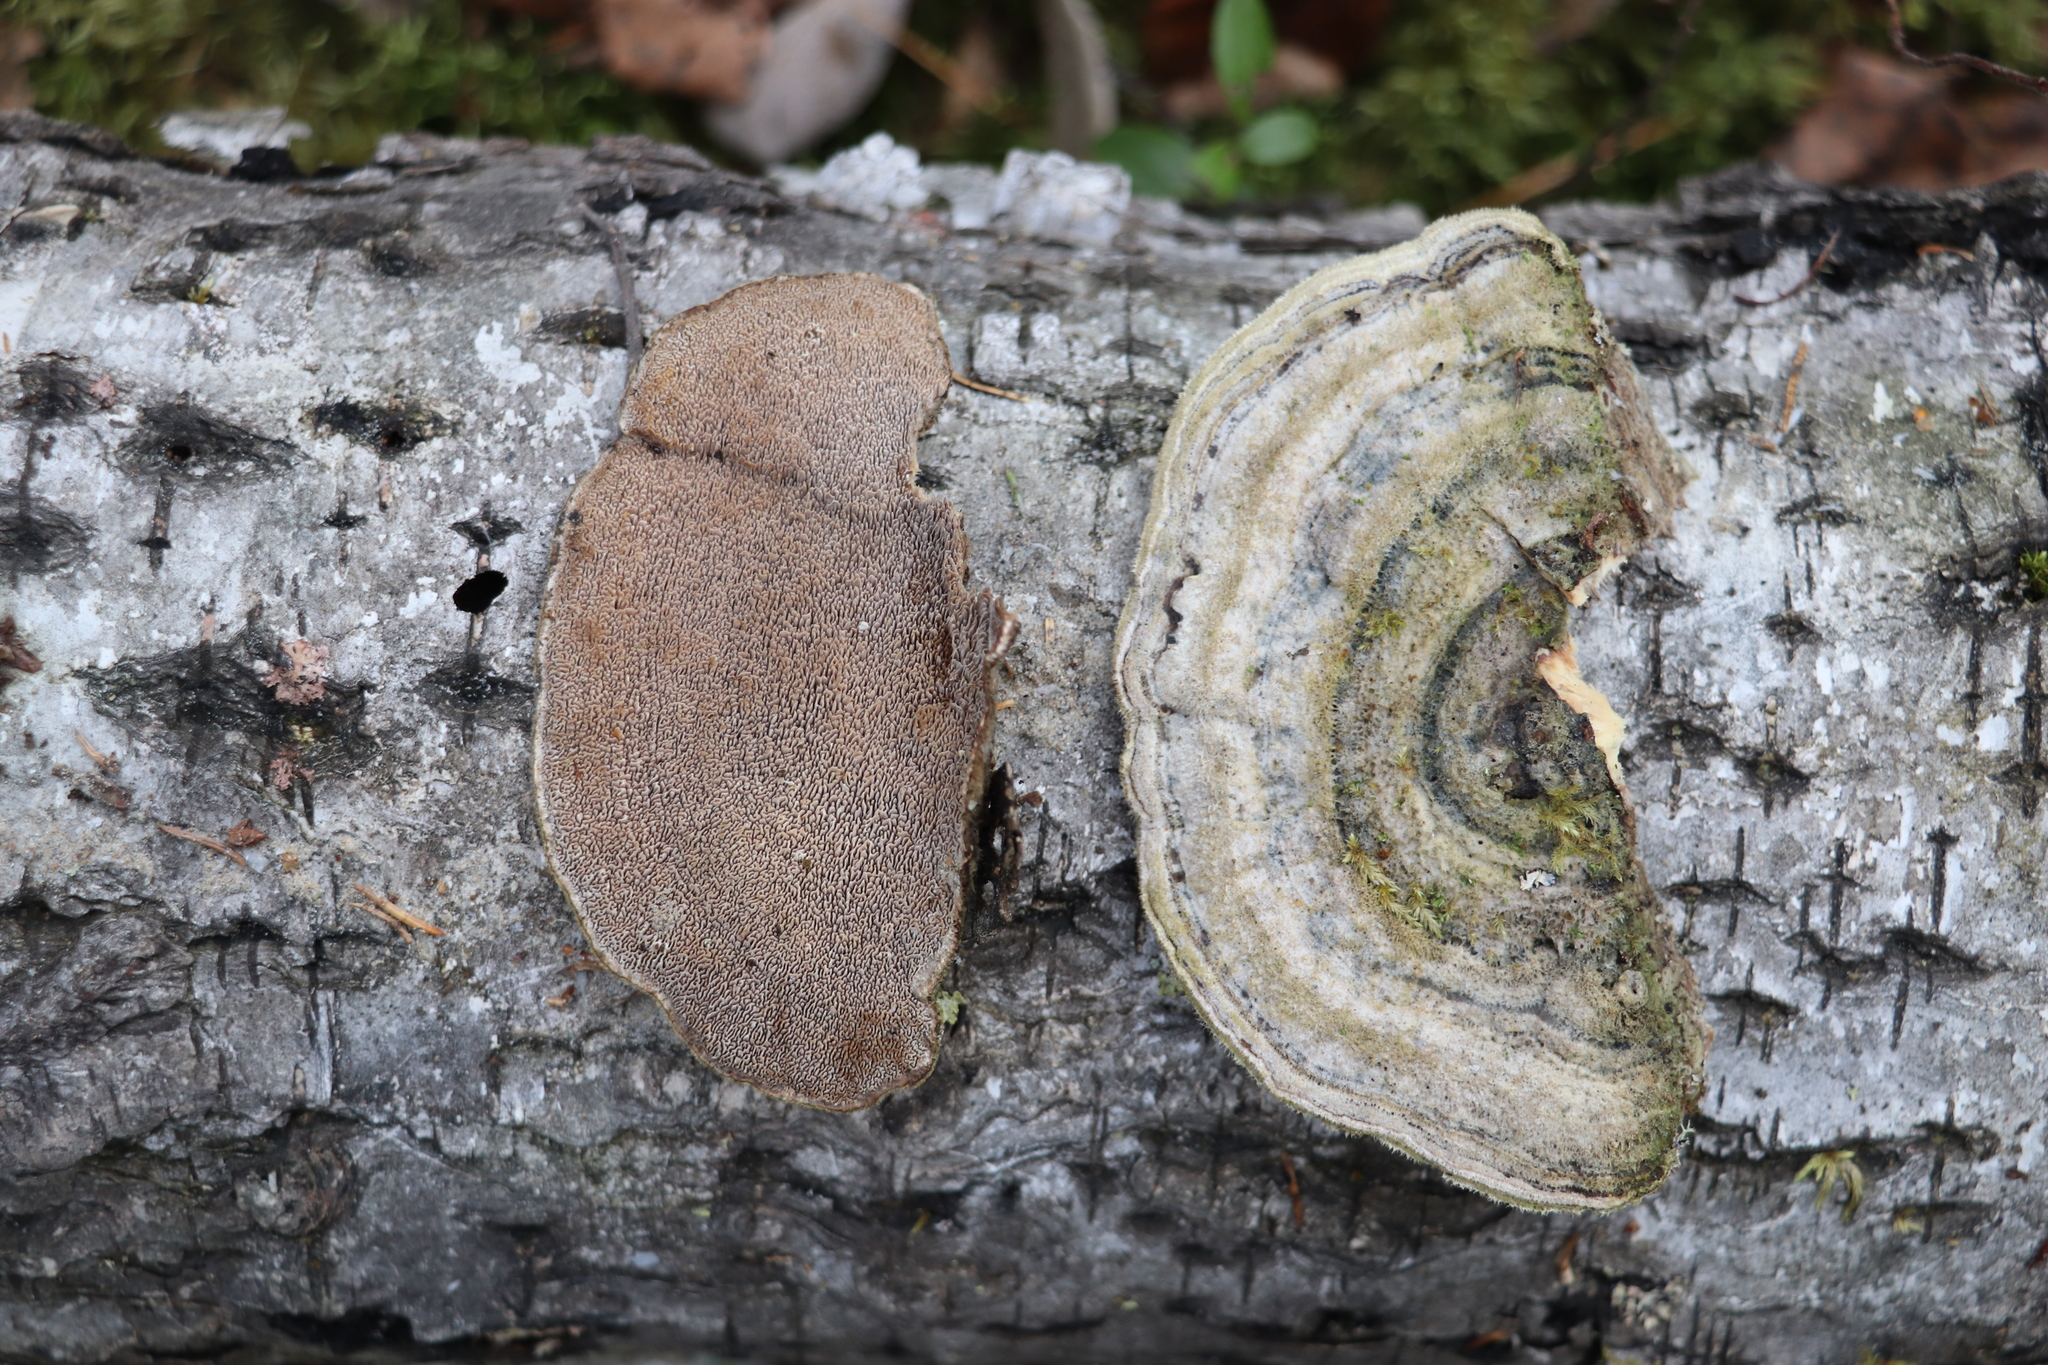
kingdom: Fungi
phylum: Basidiomycota
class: Agaricomycetes
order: Polyporales
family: Cerrenaceae
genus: Cerrena
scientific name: Cerrena unicolor
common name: Mossy maze polypore
